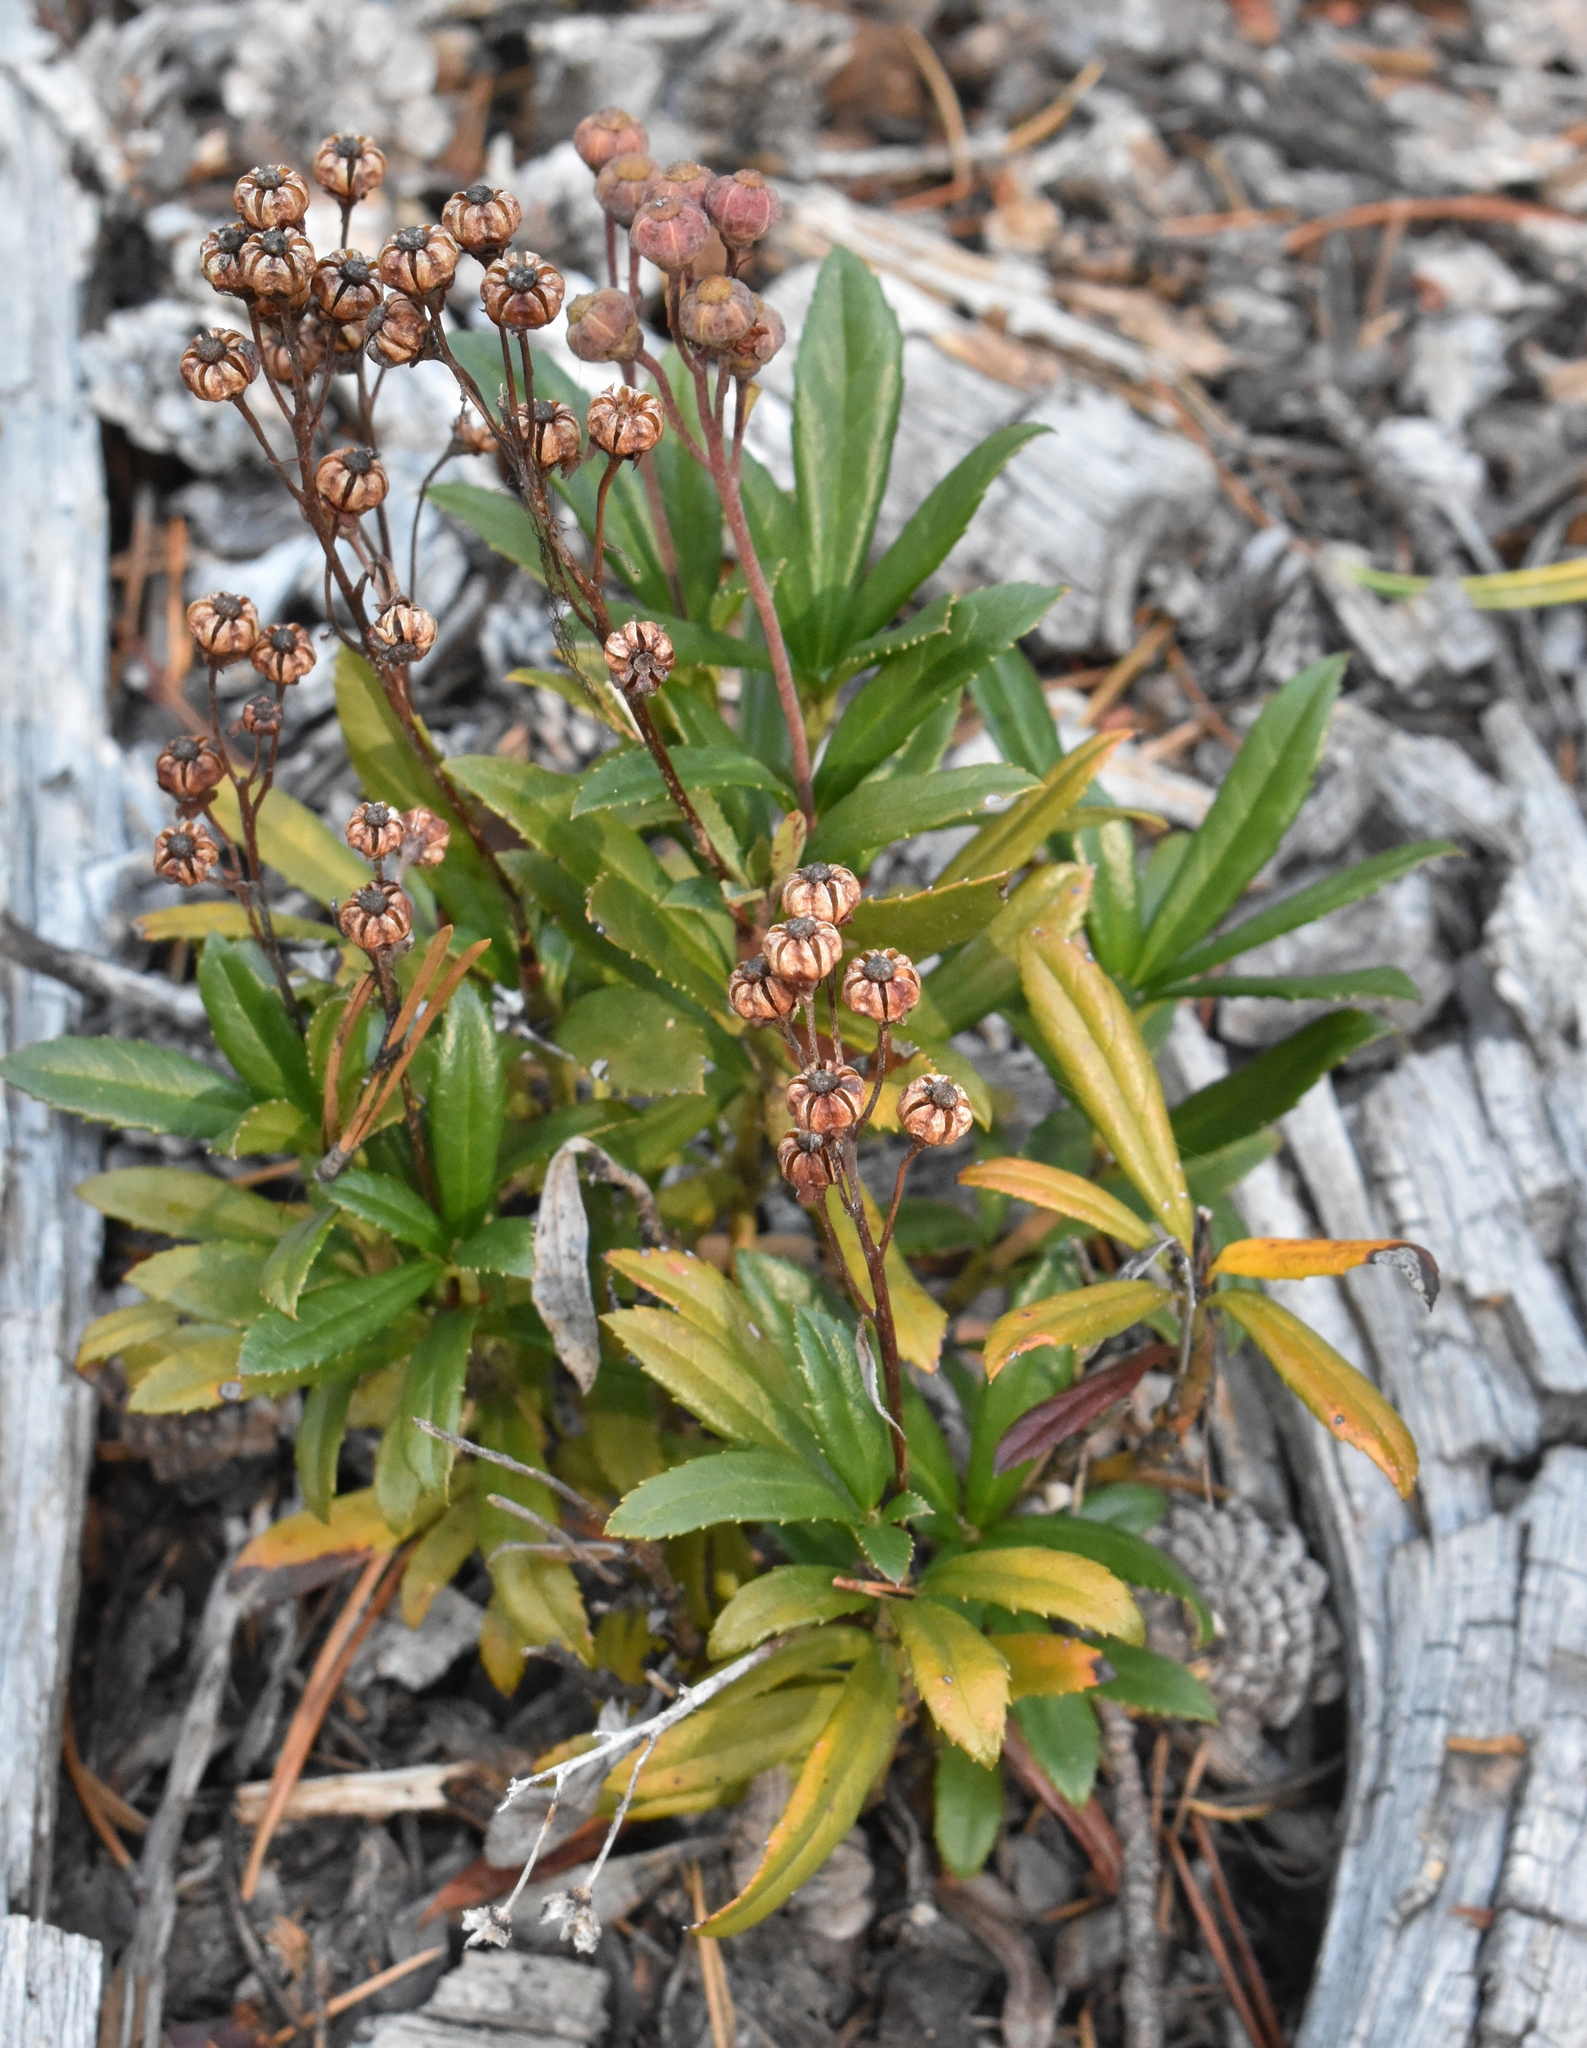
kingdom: Plantae
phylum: Tracheophyta
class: Magnoliopsida
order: Ericales
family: Ericaceae
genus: Chimaphila
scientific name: Chimaphila umbellata
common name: Pipsissewa
